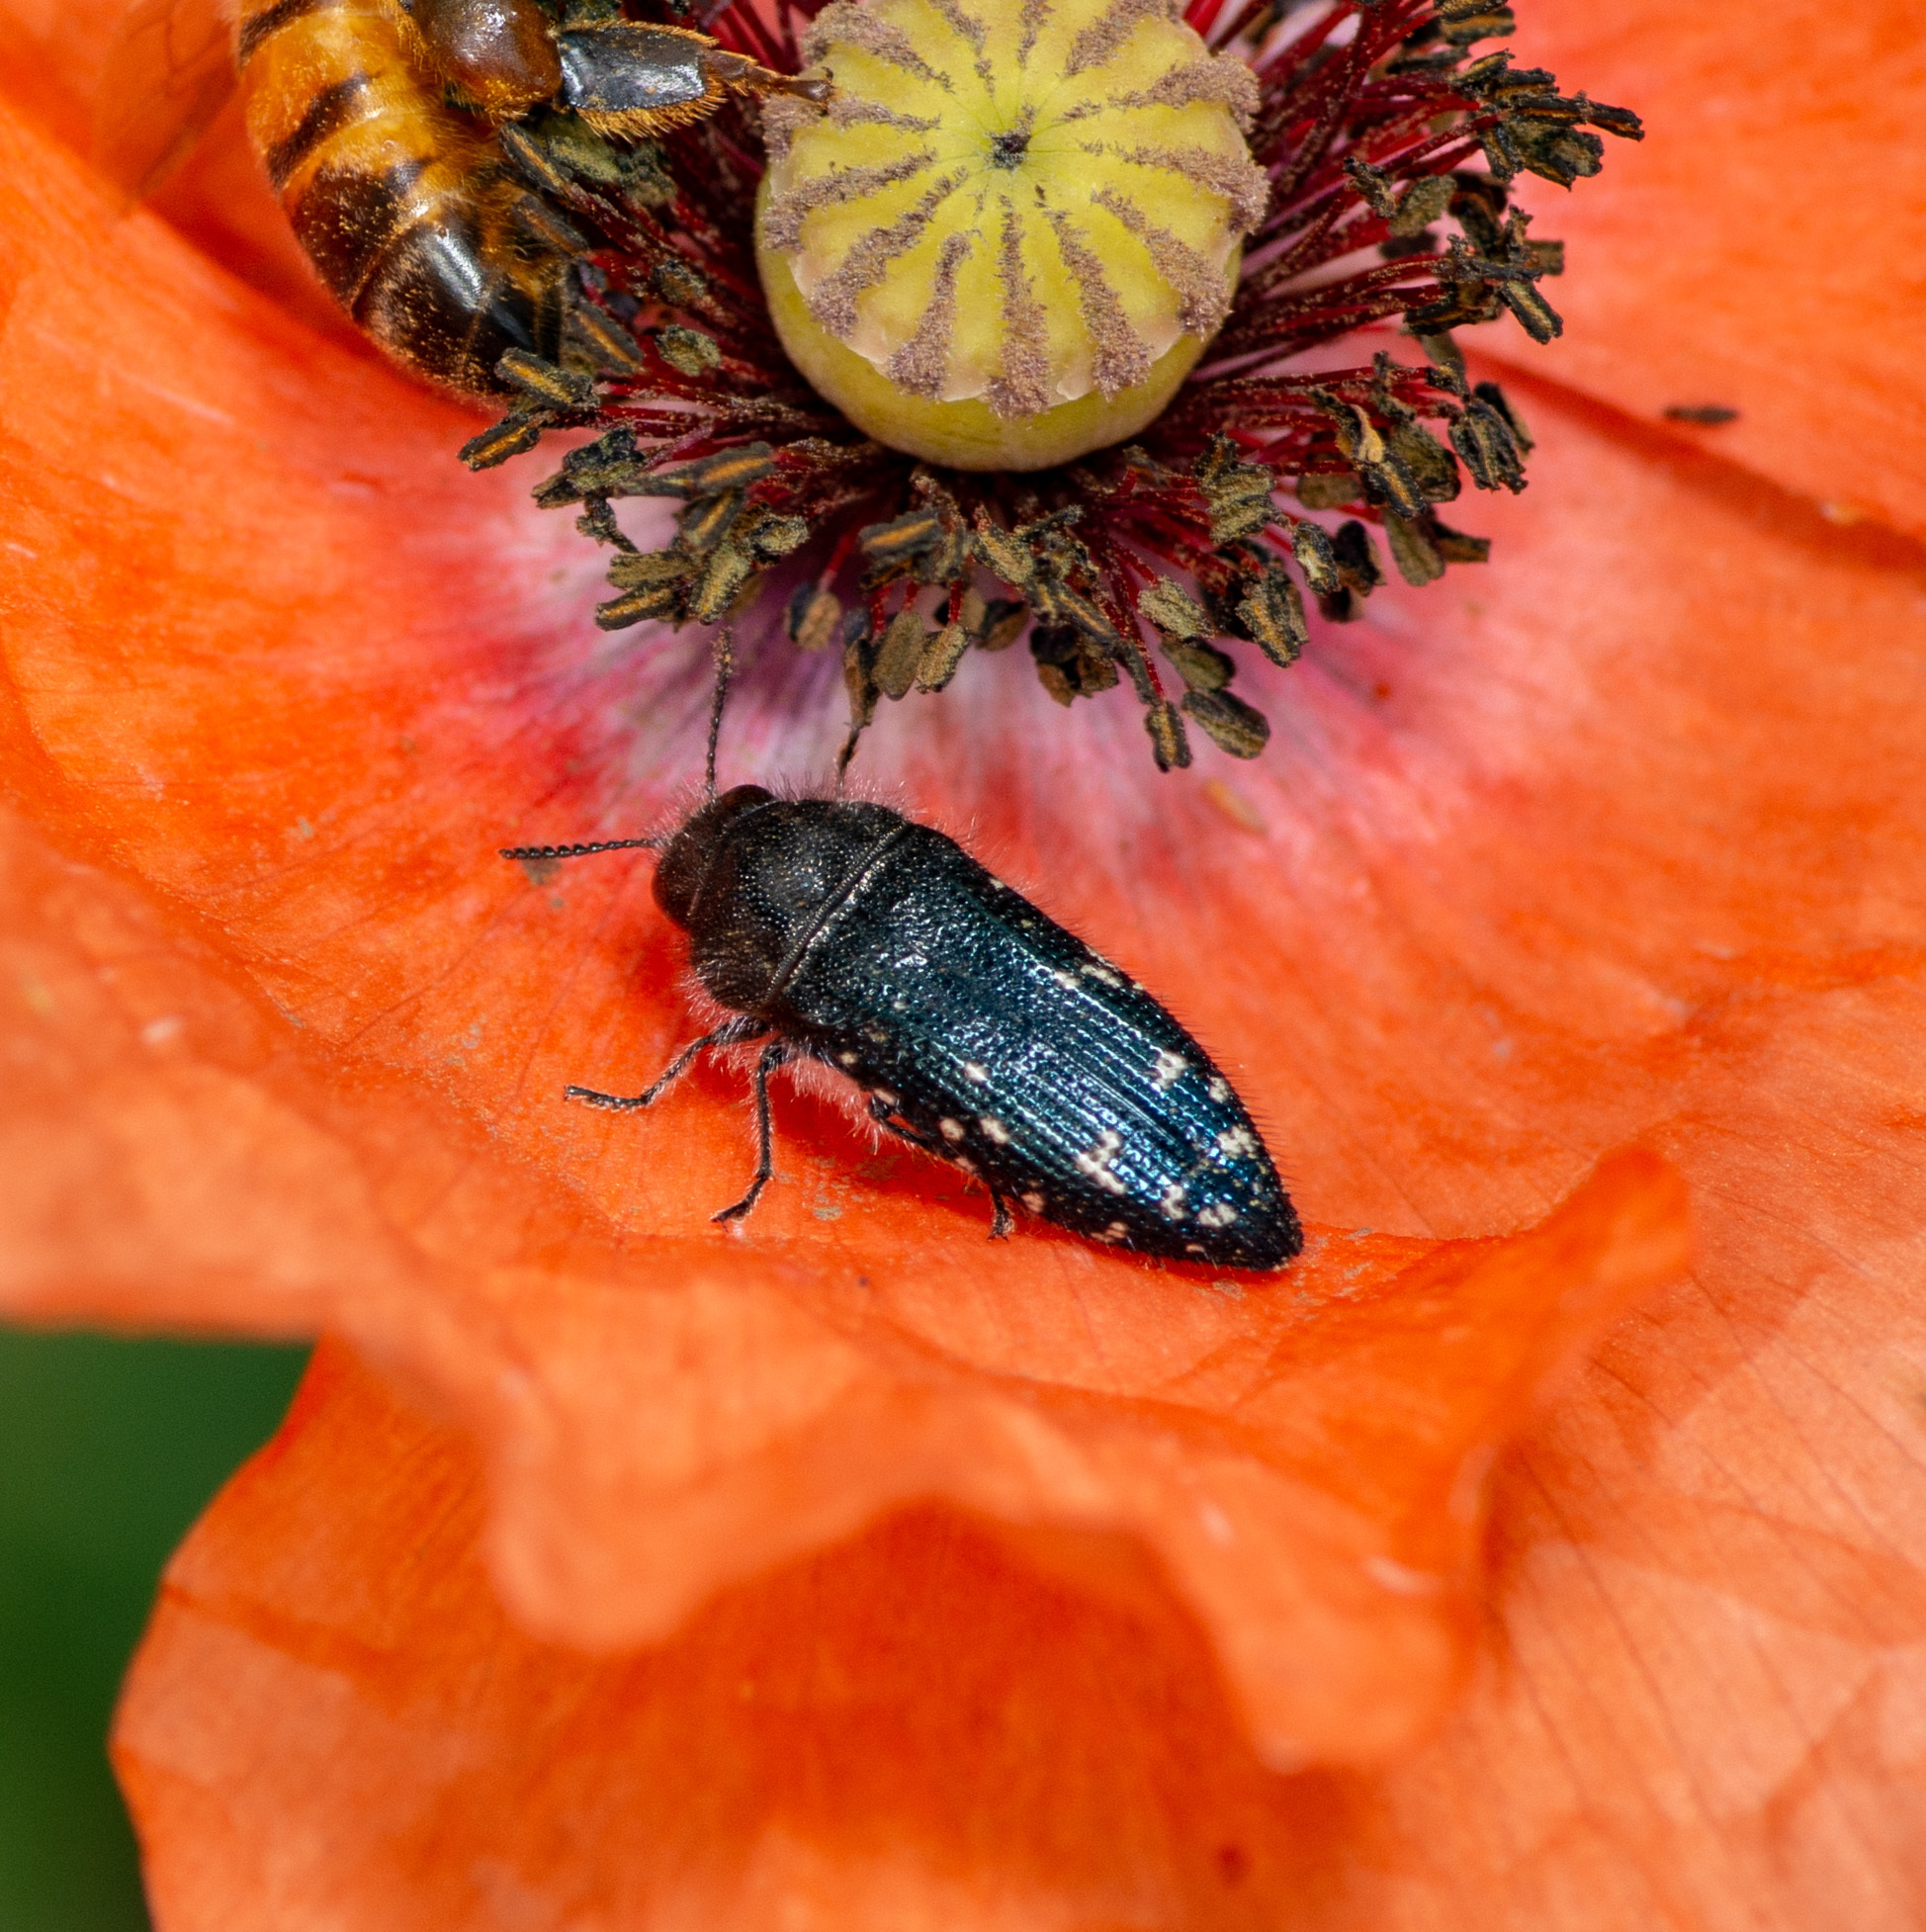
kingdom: Animalia
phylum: Arthropoda
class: Insecta
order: Coleoptera
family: Buprestidae
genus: Acmaeodera
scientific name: Acmaeodera ornatoides
